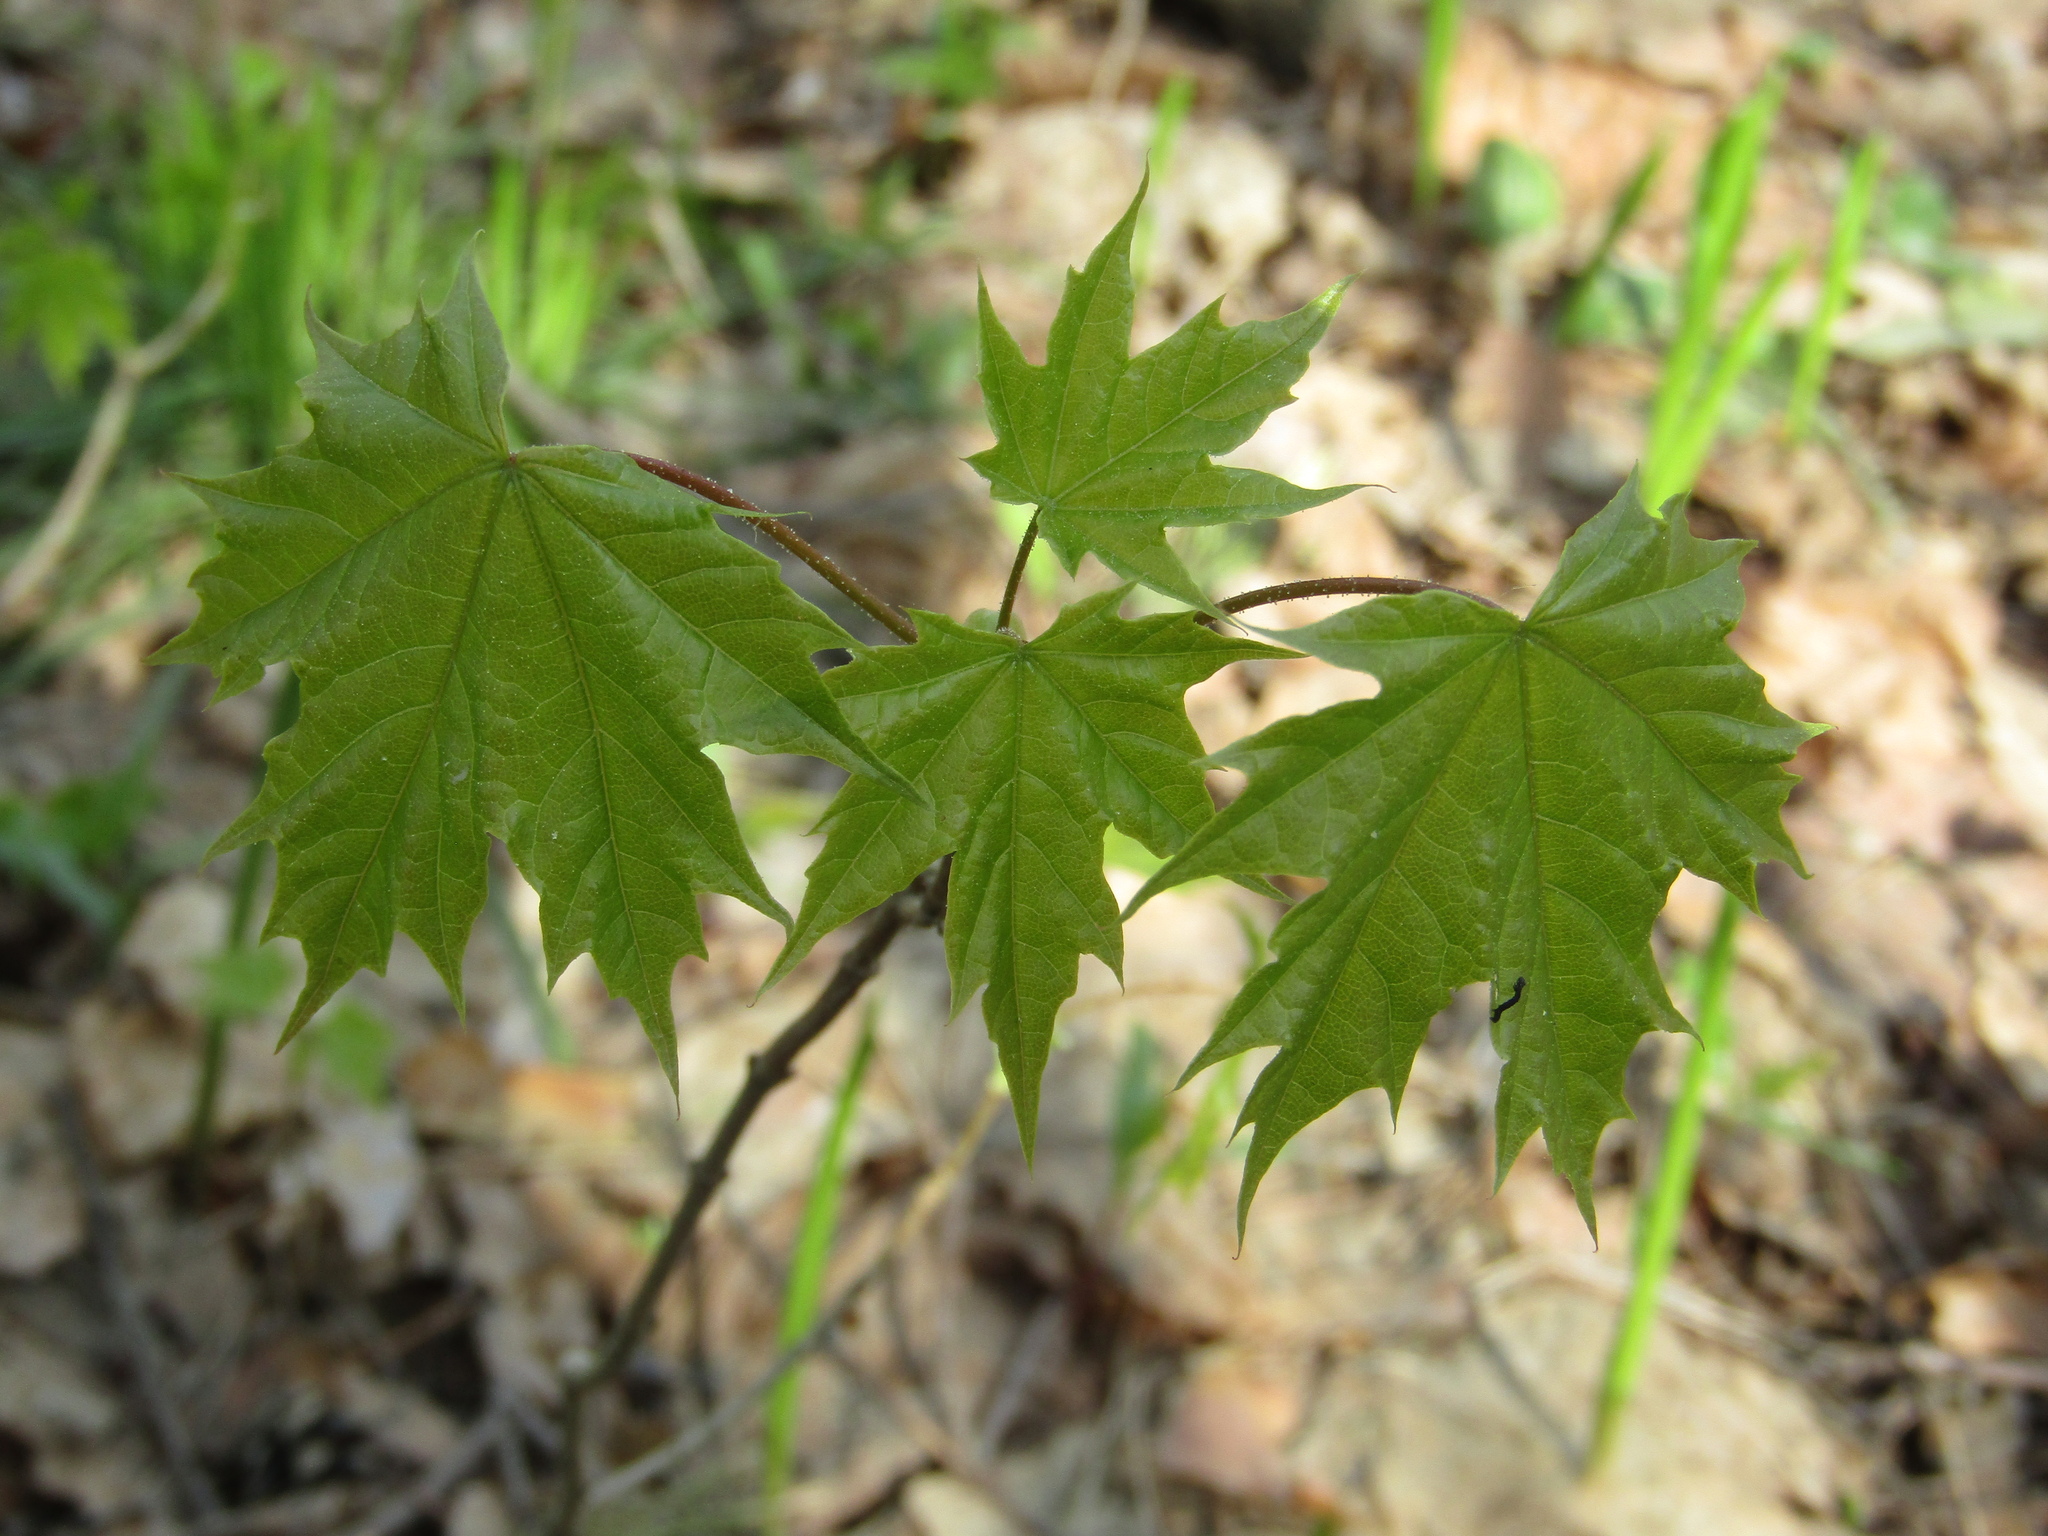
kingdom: Plantae
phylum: Tracheophyta
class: Magnoliopsida
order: Sapindales
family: Sapindaceae
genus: Acer
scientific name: Acer platanoides
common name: Norway maple
